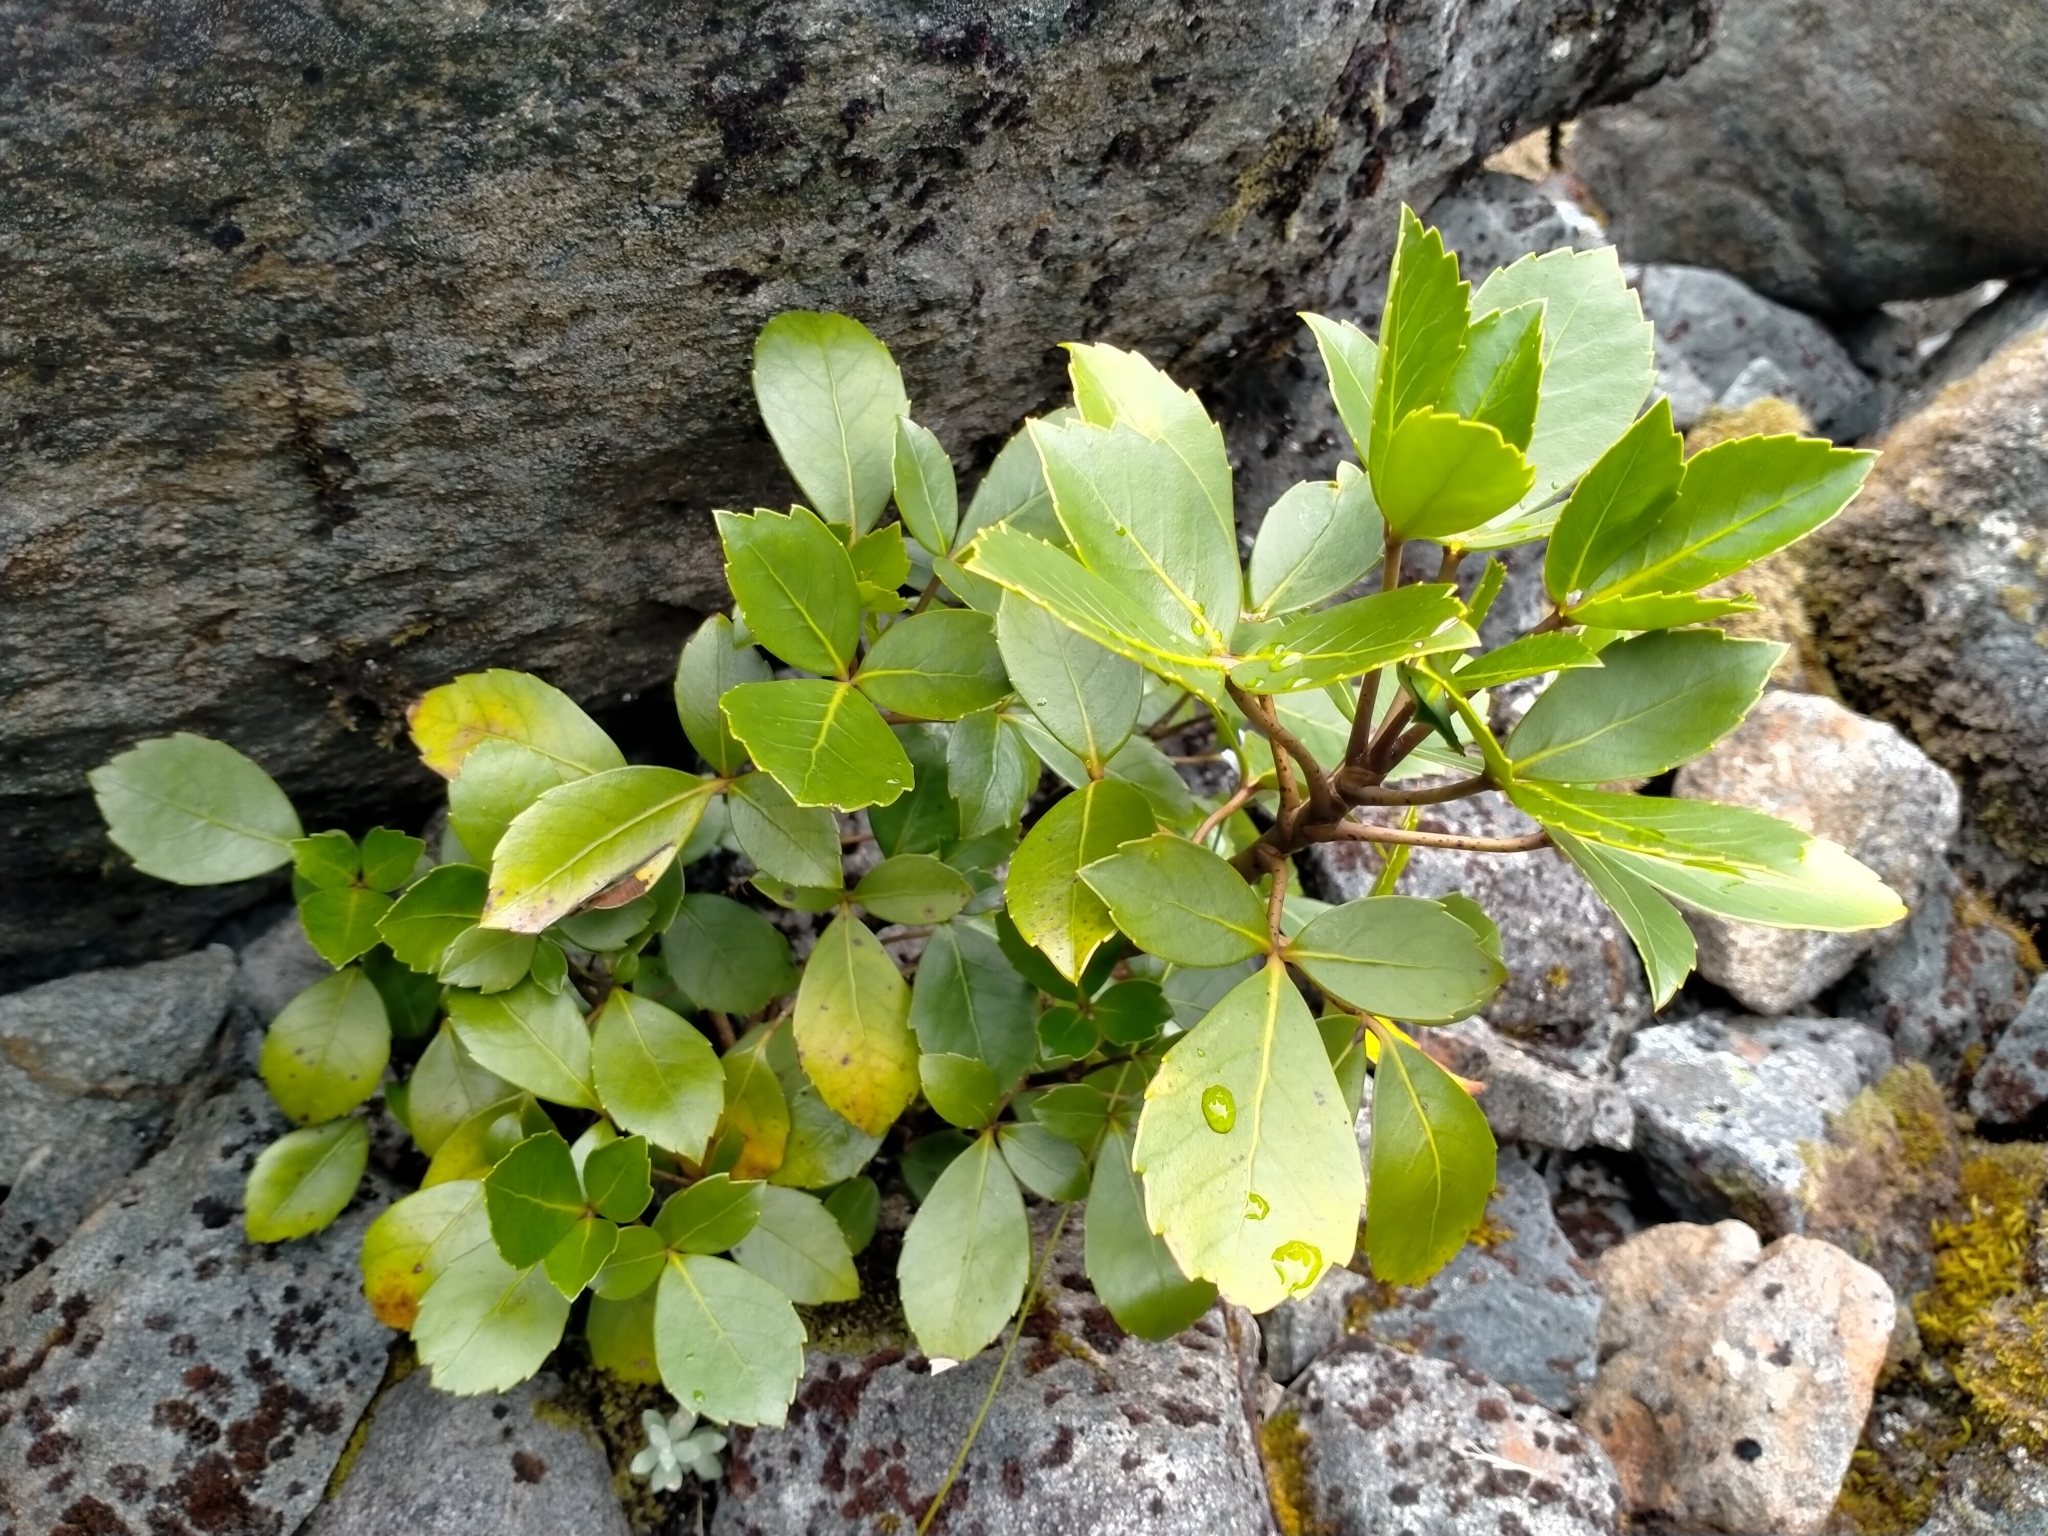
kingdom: Plantae
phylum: Tracheophyta
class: Magnoliopsida
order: Apiales
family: Araliaceae
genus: Neopanax
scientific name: Neopanax colensoi
